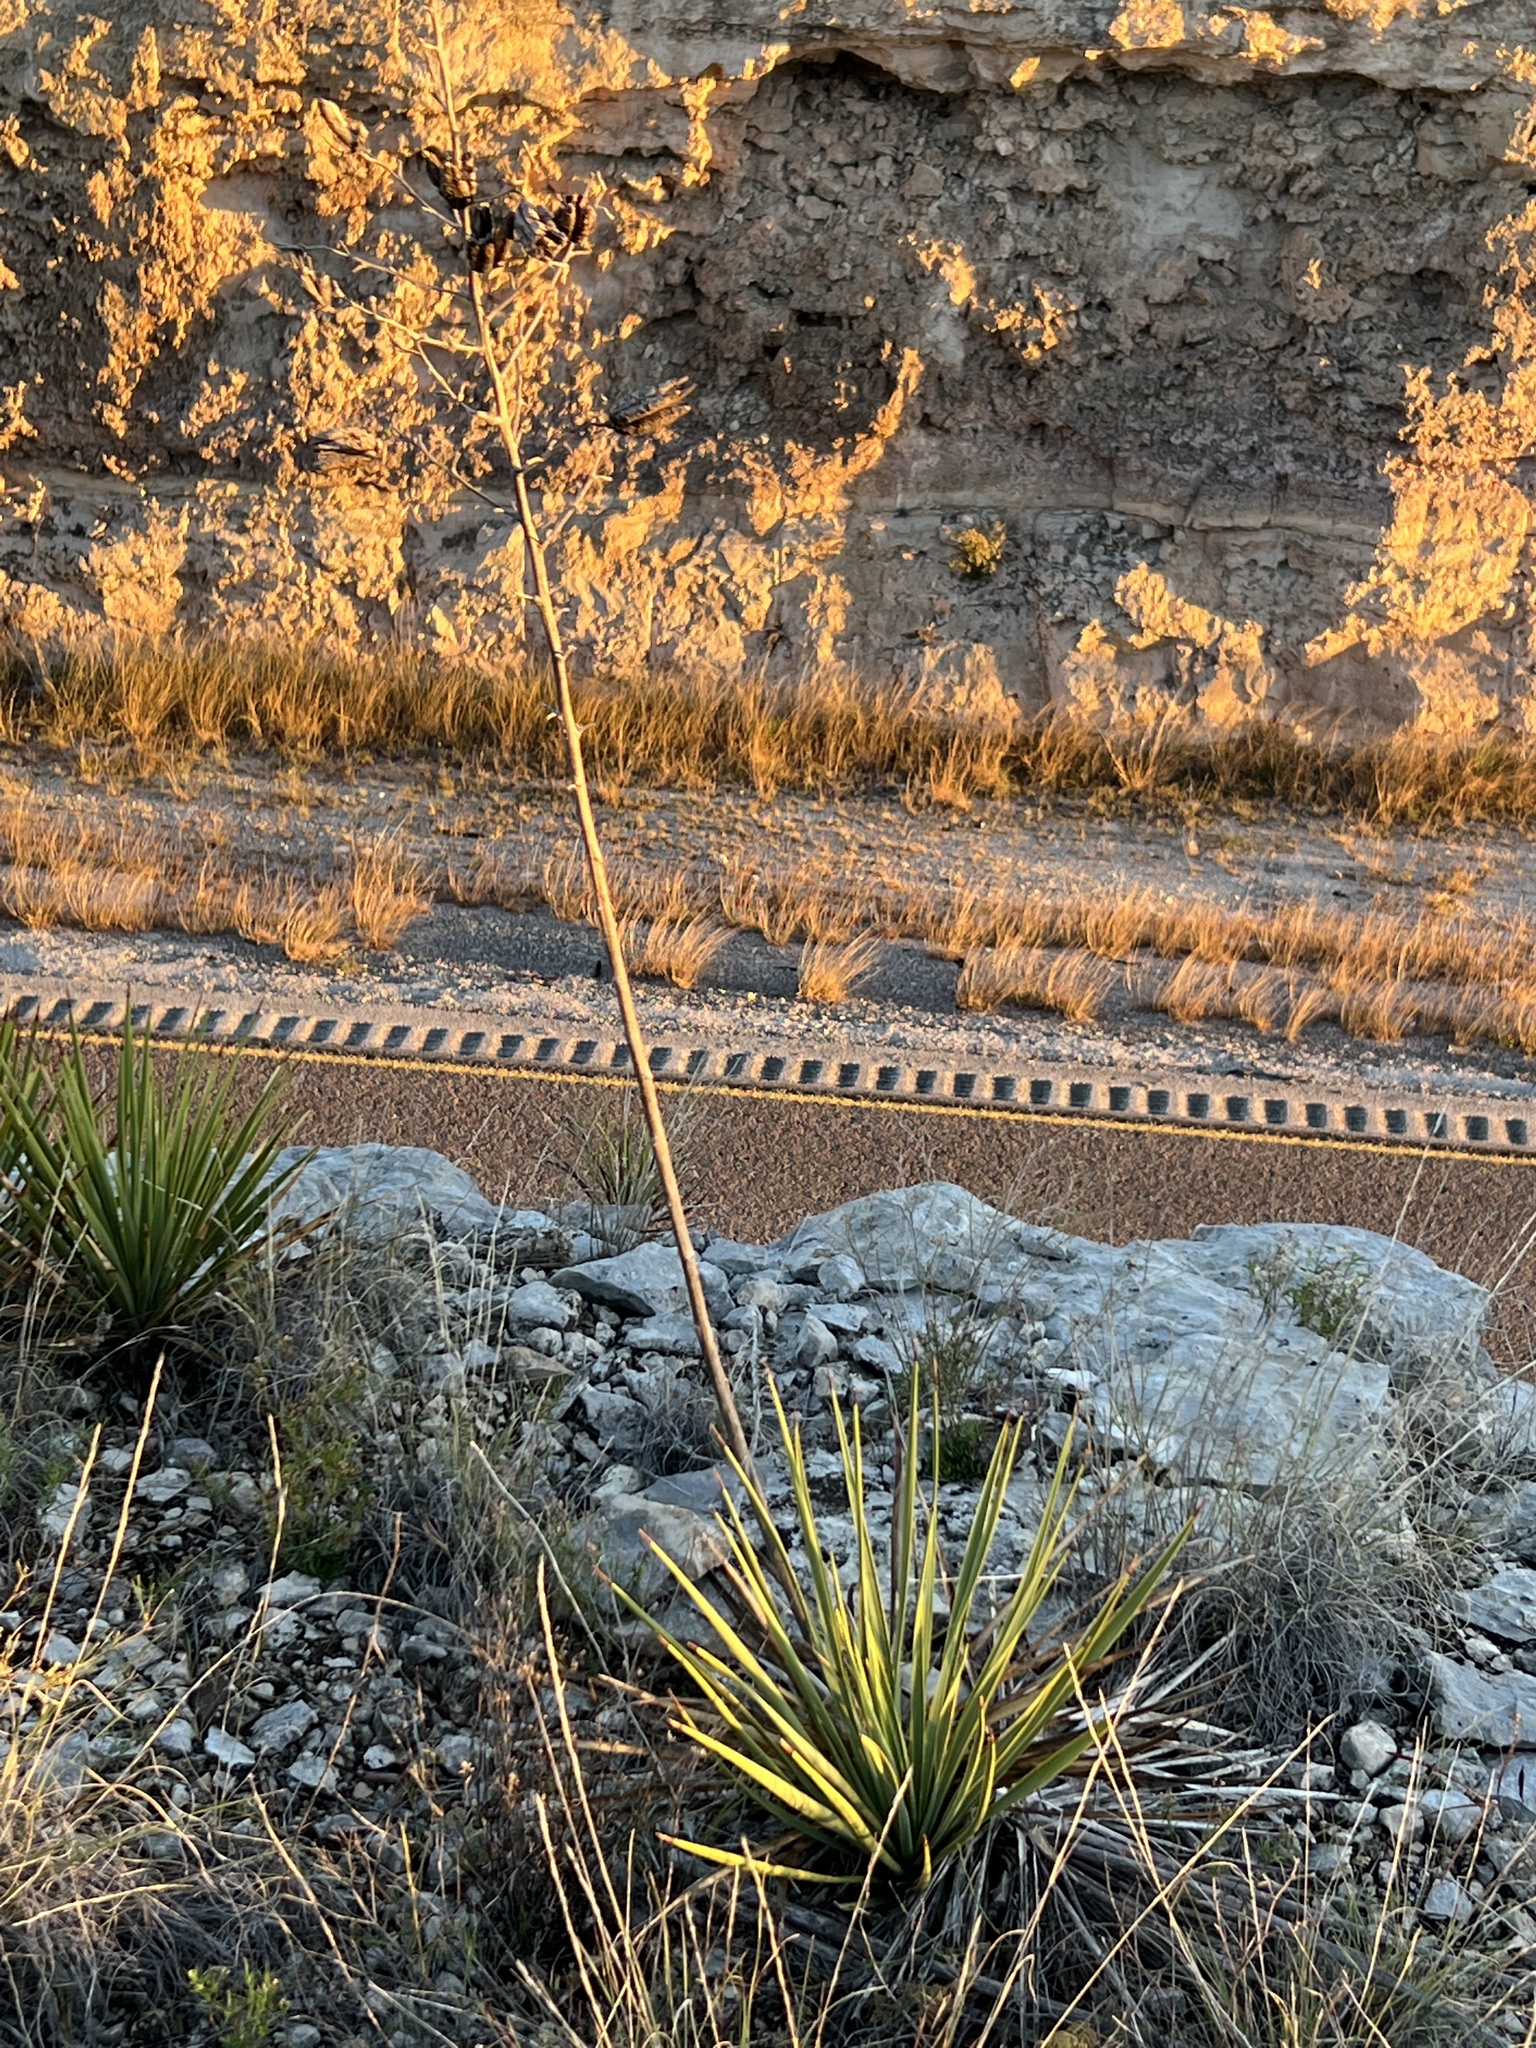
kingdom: Plantae
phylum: Tracheophyta
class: Liliopsida
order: Asparagales
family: Asparagaceae
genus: Yucca
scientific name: Yucca reverchonii
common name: San angelo yucca
